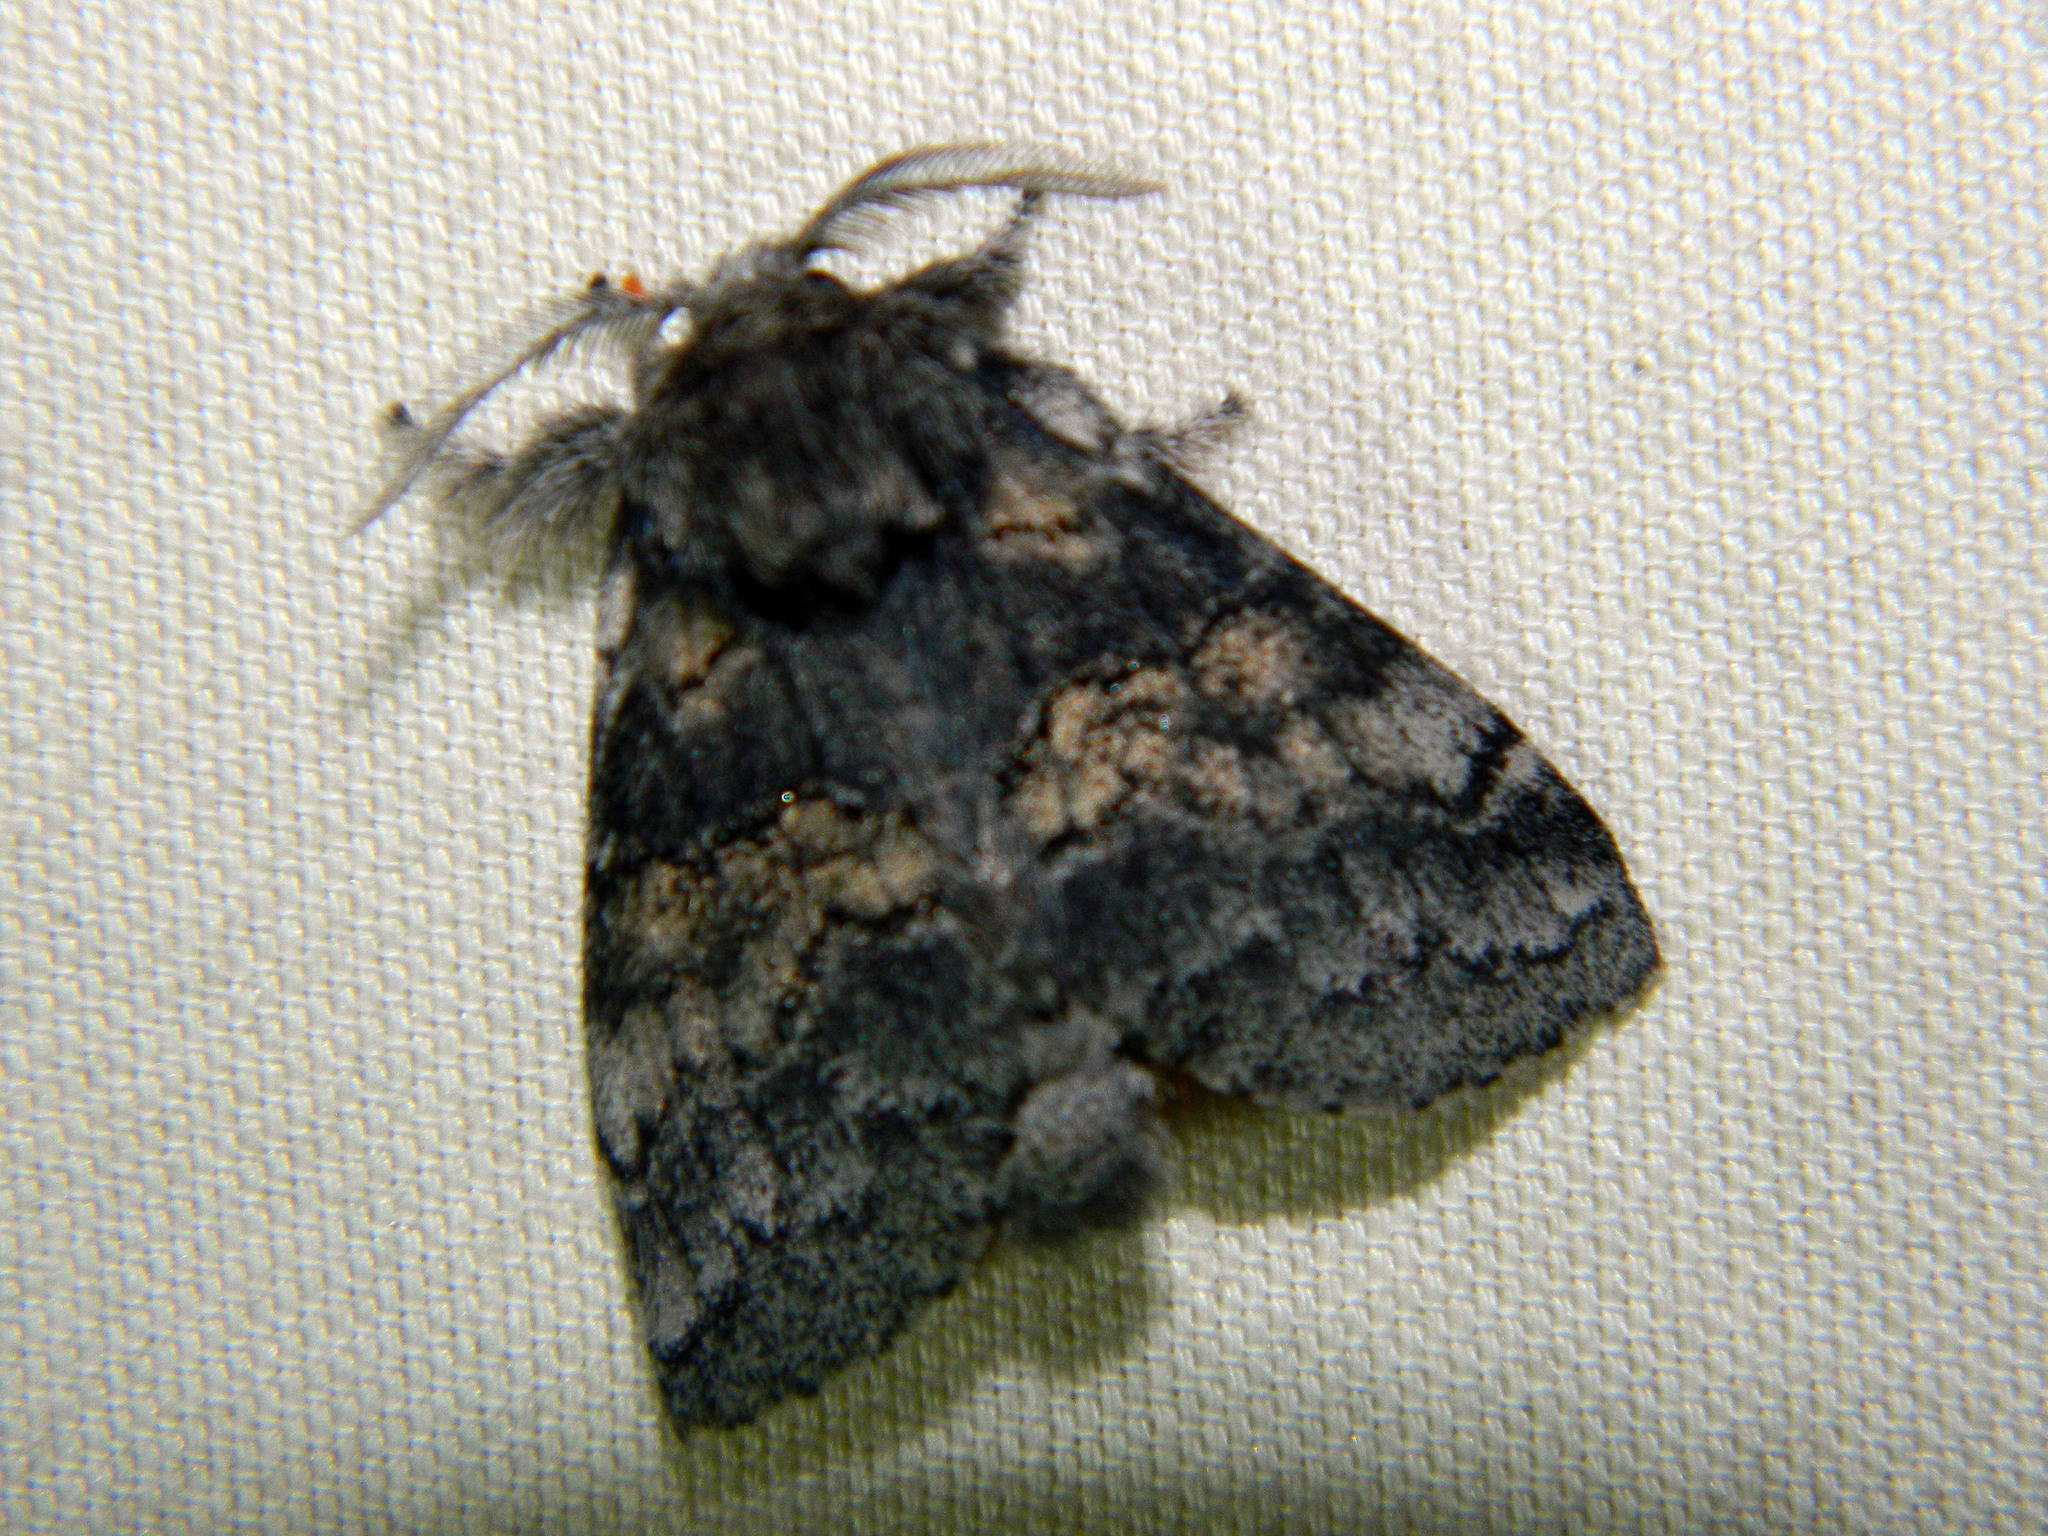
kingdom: Animalia
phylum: Arthropoda
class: Insecta
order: Lepidoptera
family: Notodontidae
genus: Gluphisia
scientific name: Gluphisia septentrionis
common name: Common gluphisia
